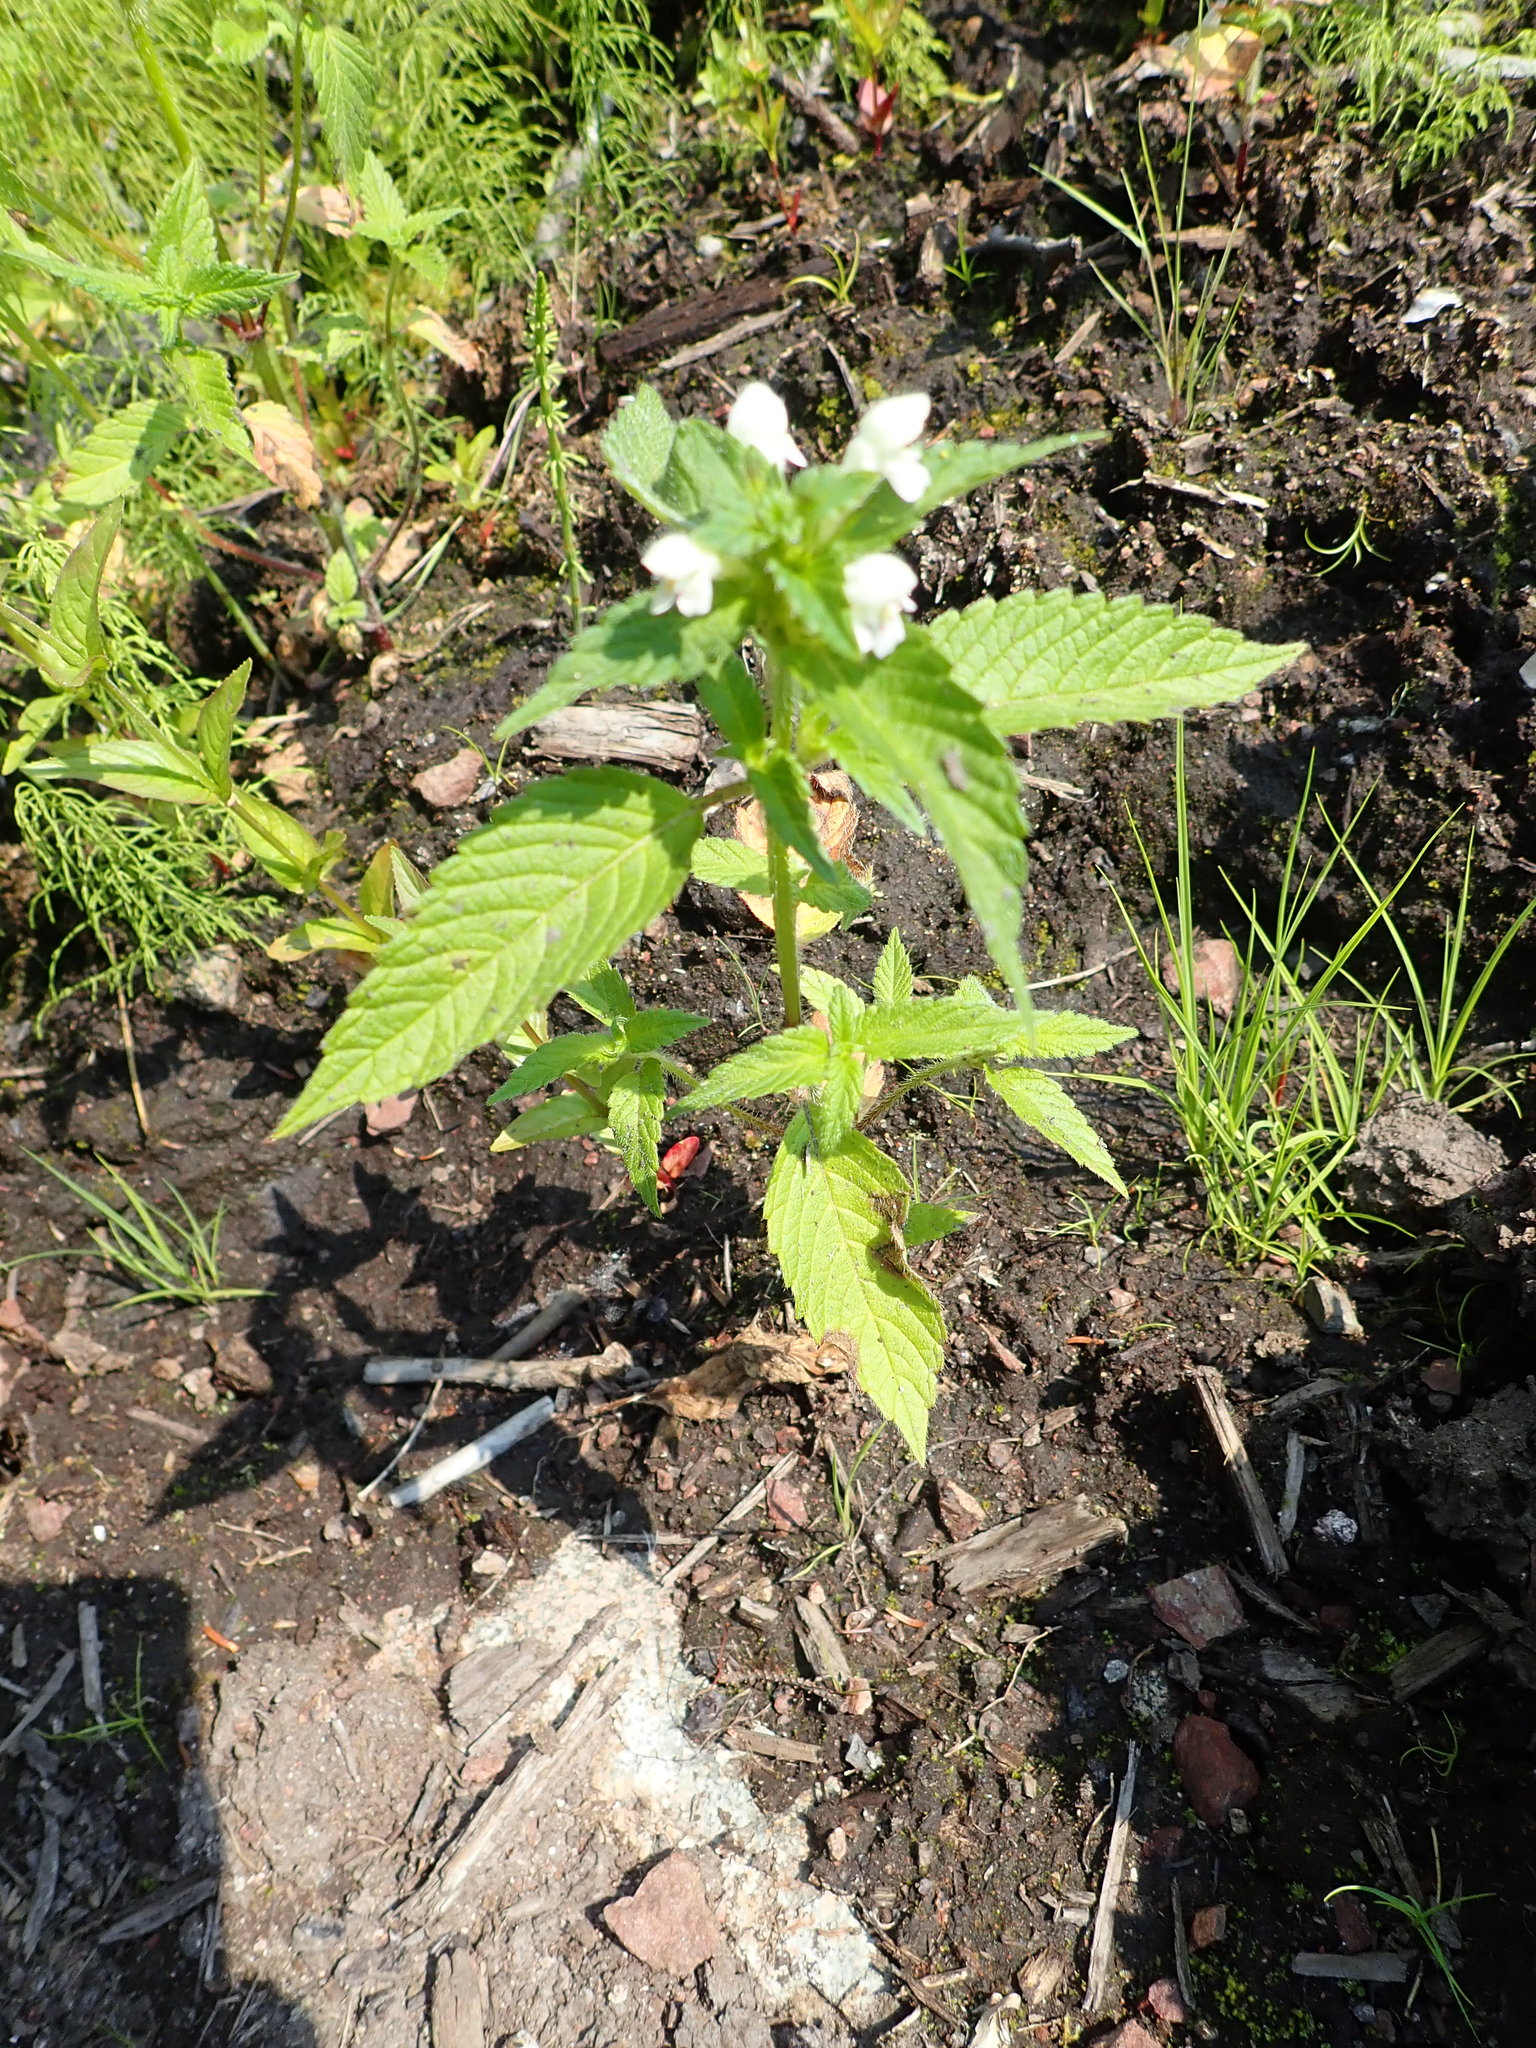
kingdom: Plantae
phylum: Tracheophyta
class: Magnoliopsida
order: Lamiales
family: Lamiaceae
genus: Galeopsis
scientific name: Galeopsis tetrahit
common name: Common hemp-nettle
